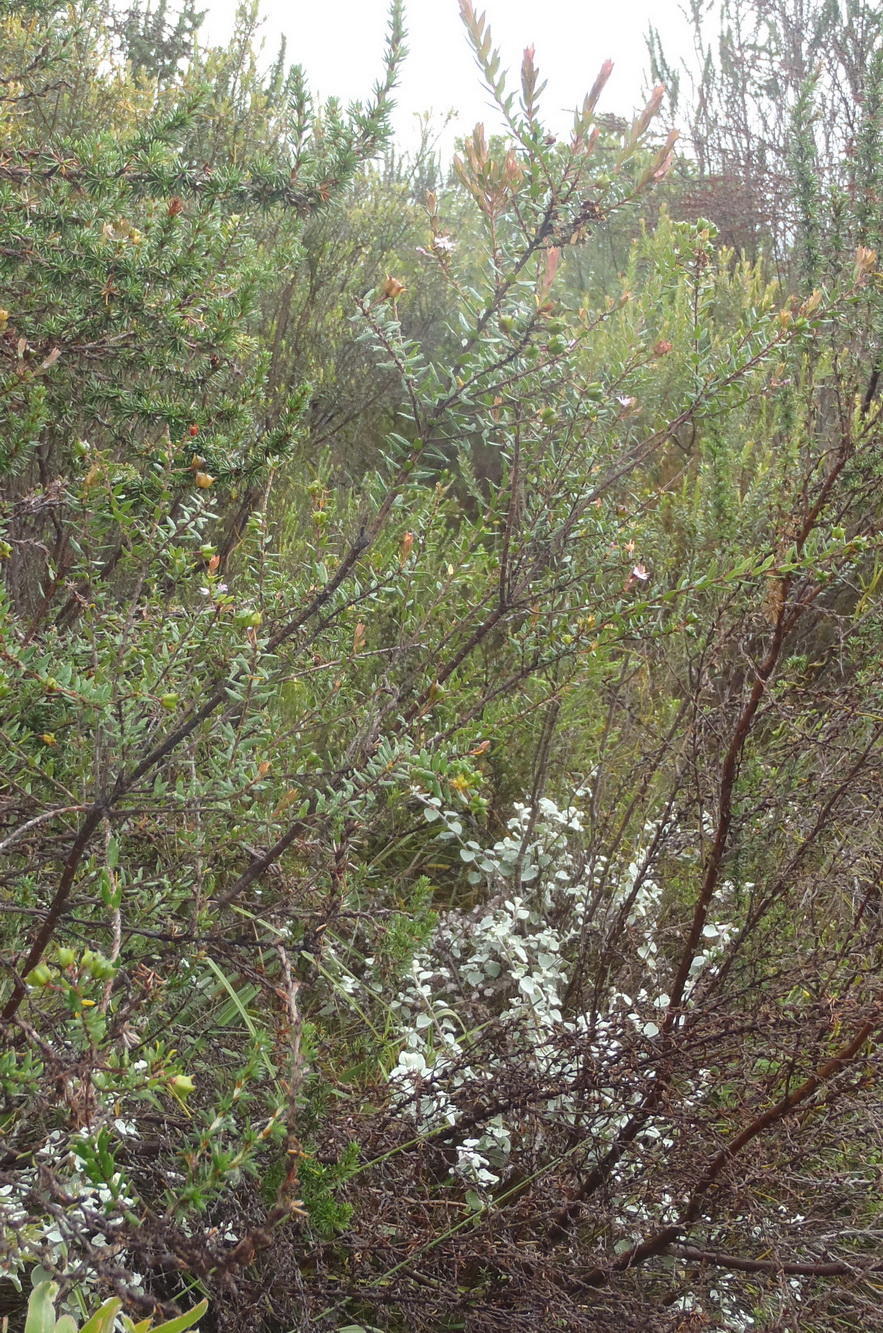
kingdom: Plantae
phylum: Tracheophyta
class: Magnoliopsida
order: Sapindales
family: Rutaceae
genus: Agathosma
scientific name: Agathosma ovata
